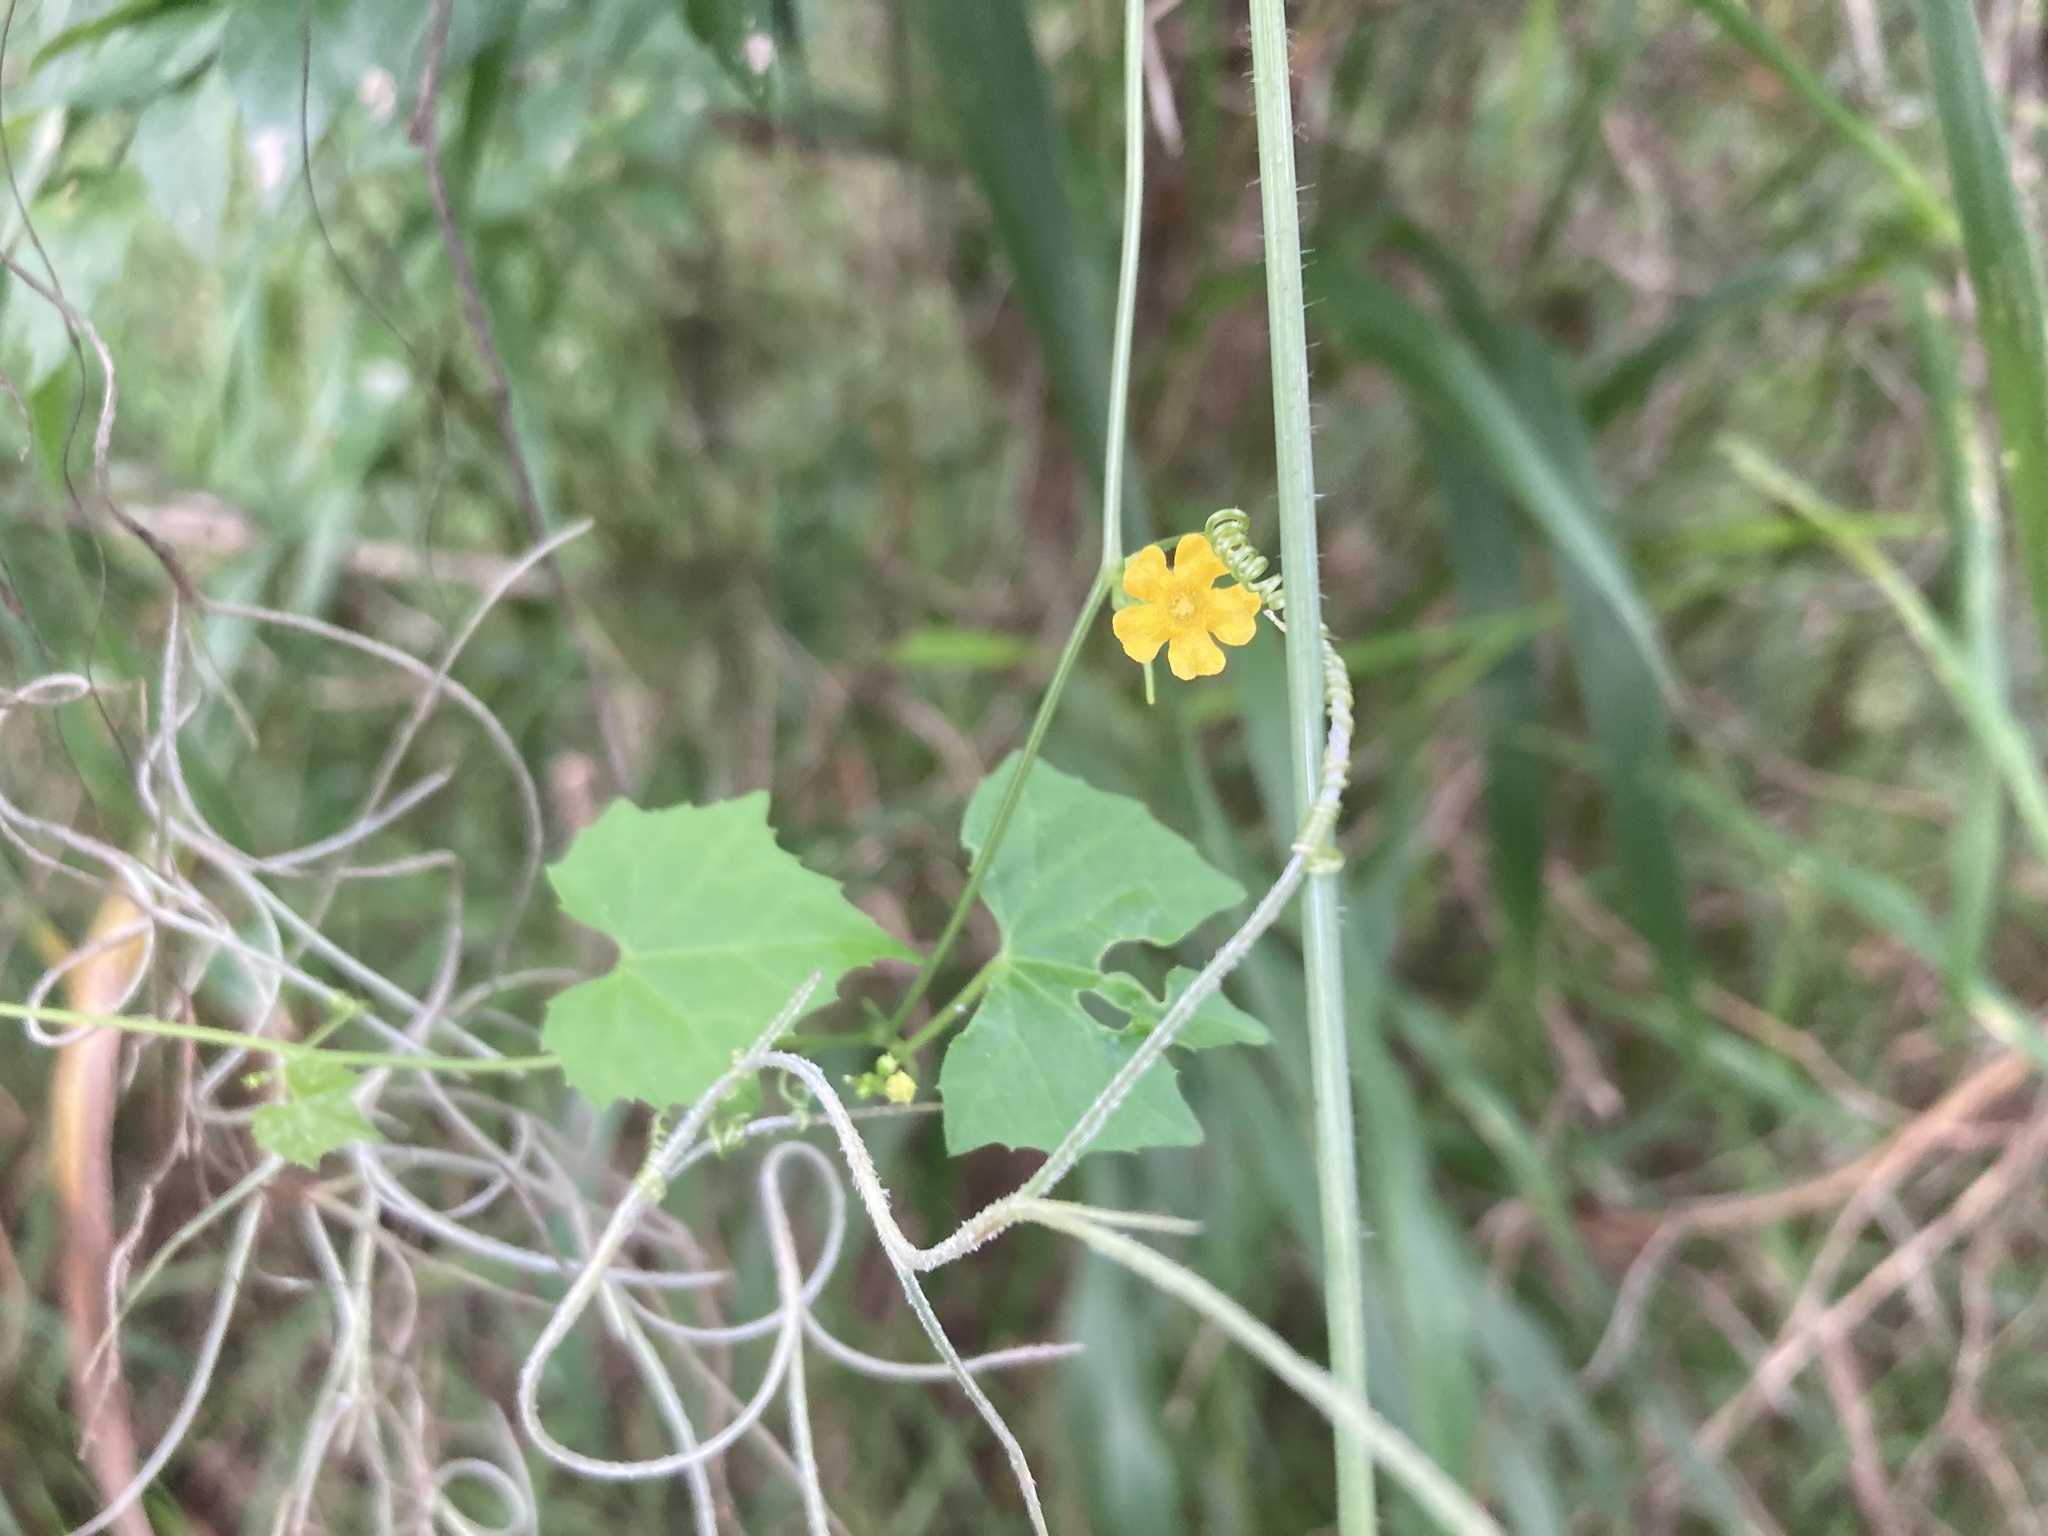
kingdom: Plantae
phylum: Tracheophyta
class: Magnoliopsida
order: Cucurbitales
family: Cucurbitaceae
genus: Melothria
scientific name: Melothria pendula
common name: Creeping-cucumber
